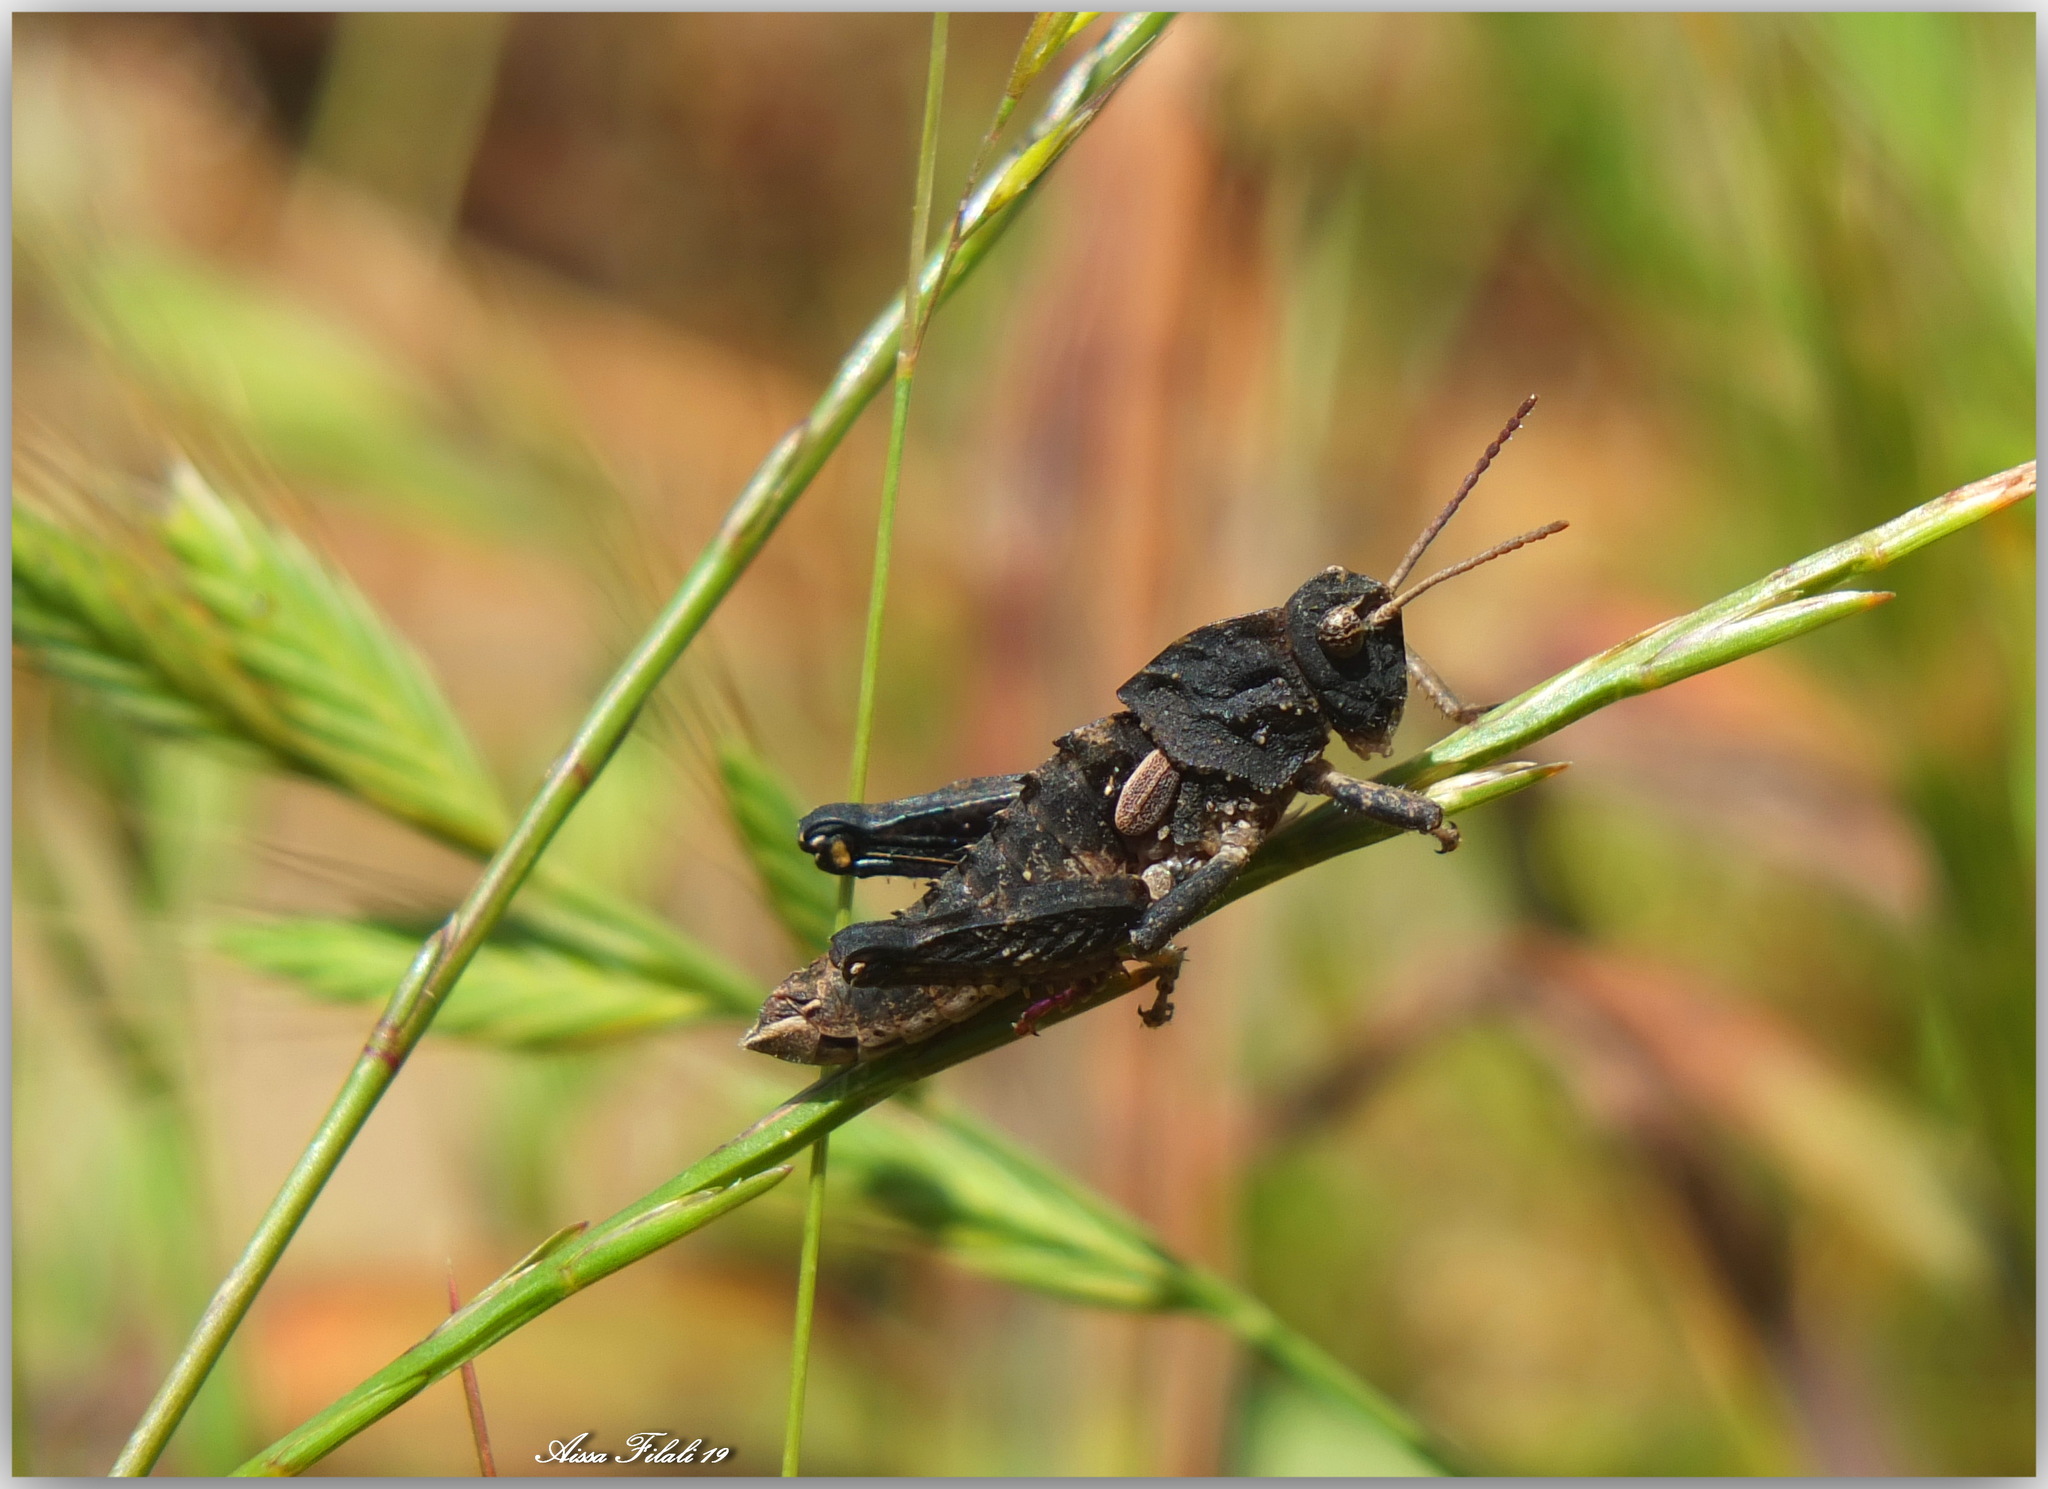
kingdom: Animalia
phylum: Arthropoda
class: Insecta
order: Orthoptera
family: Pamphagidae
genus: Ocneridia
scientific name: Ocneridia nigropunctata
